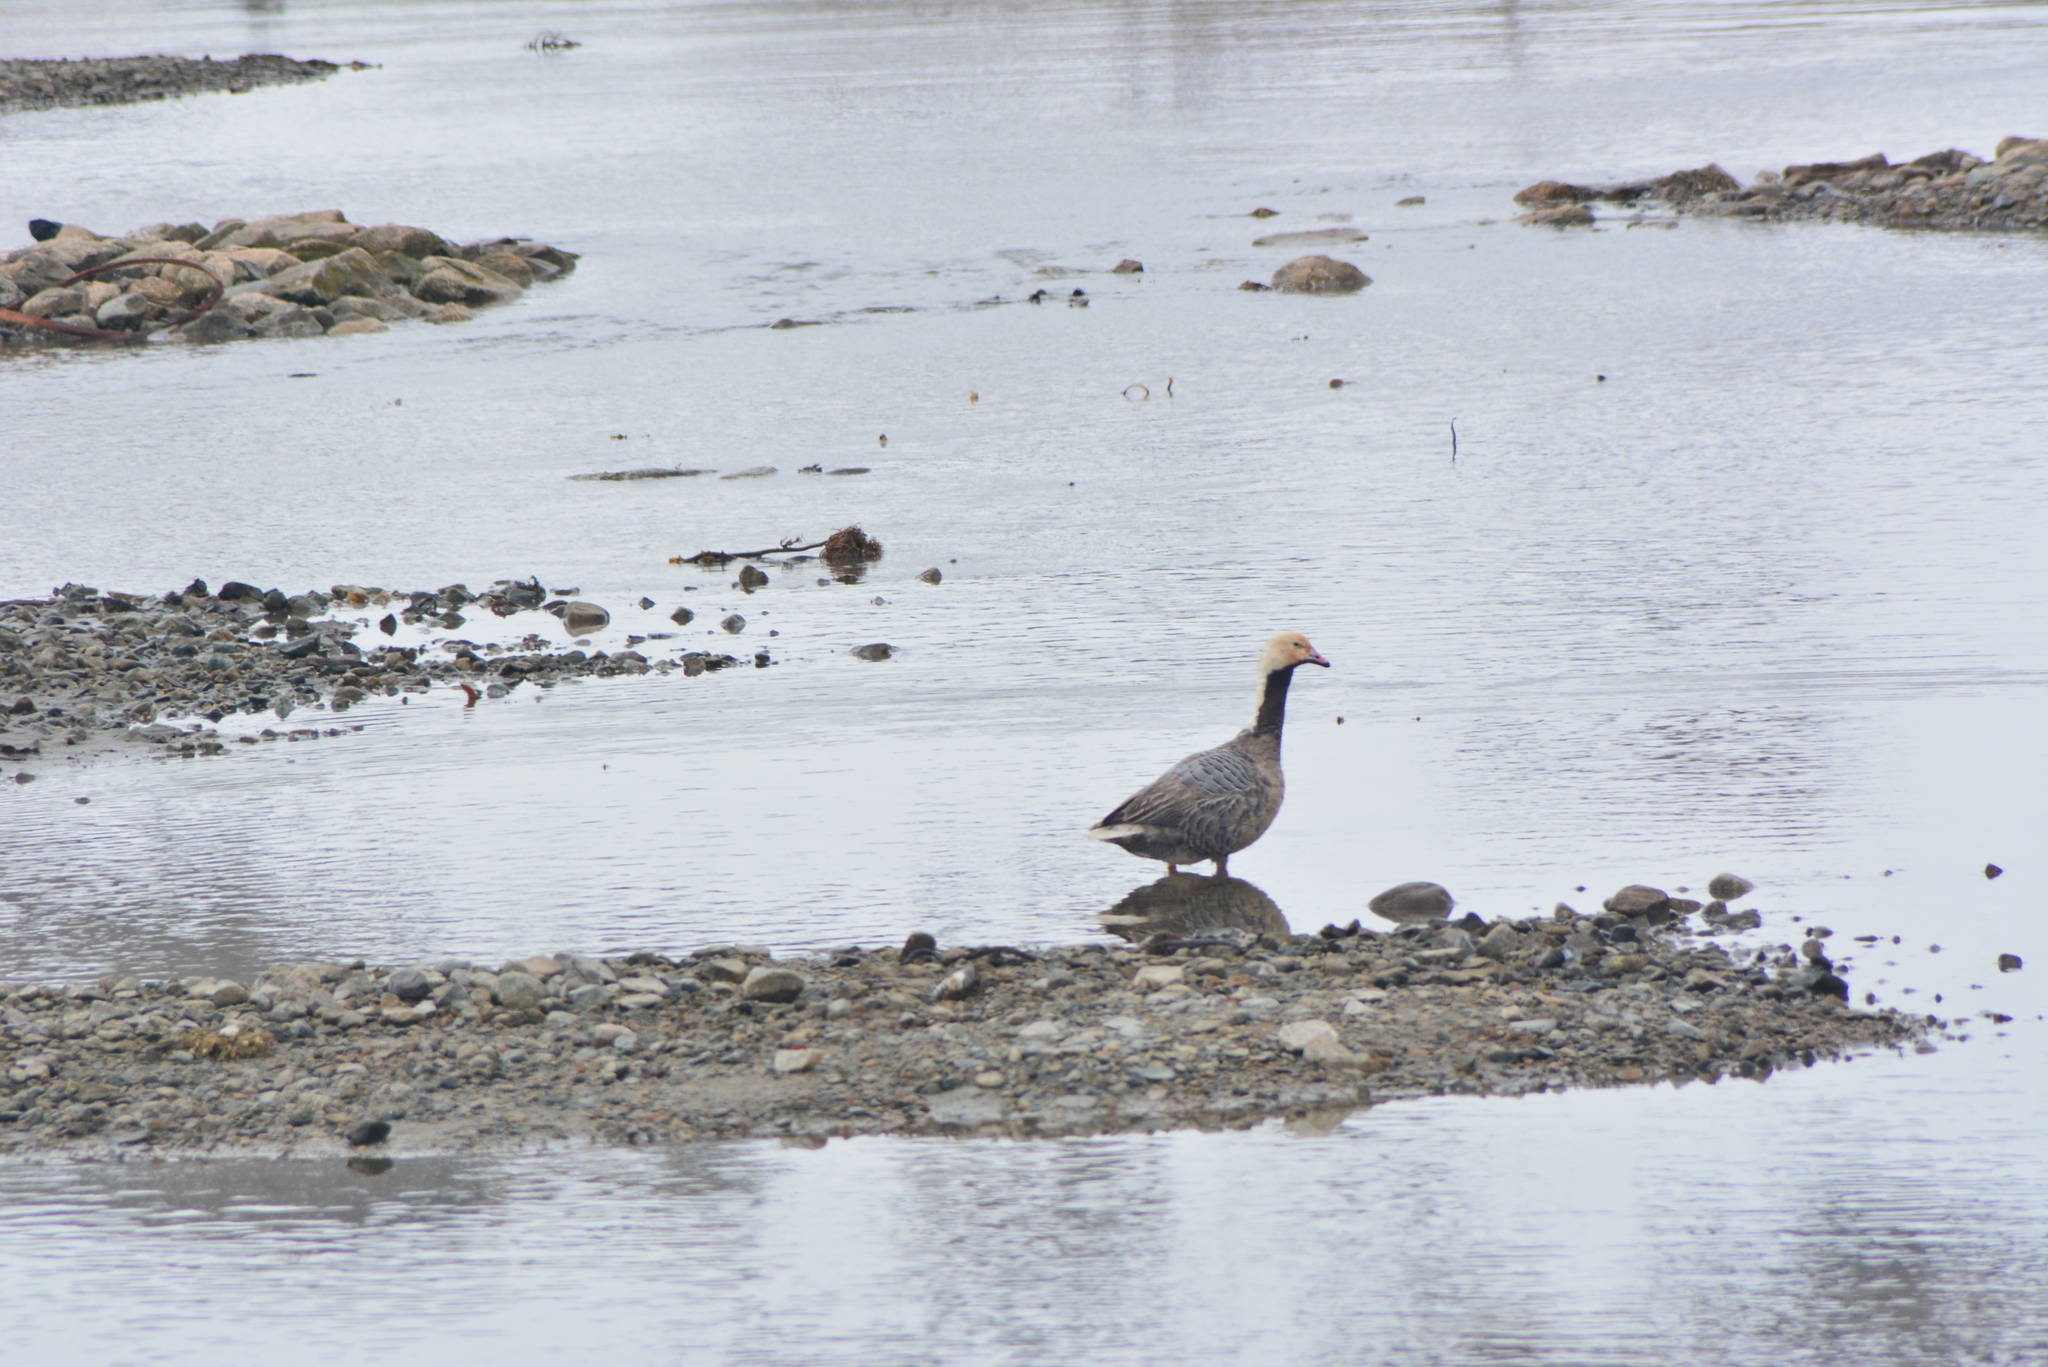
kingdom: Animalia
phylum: Chordata
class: Aves
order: Anseriformes
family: Anatidae
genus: Anser
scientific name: Anser canagicus
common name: Emperor goose
